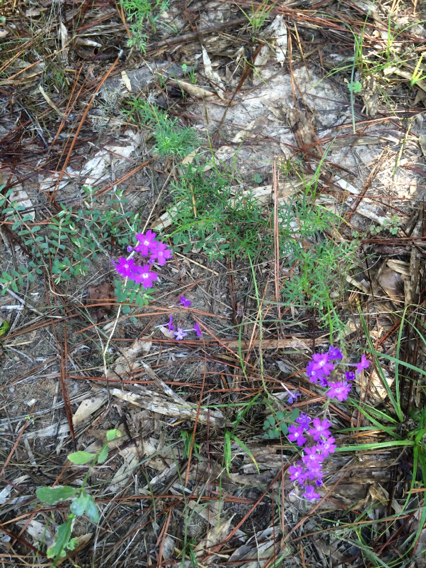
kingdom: Plantae
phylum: Tracheophyta
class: Magnoliopsida
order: Lamiales
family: Verbenaceae
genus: Verbena
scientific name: Verbena bipinnatifida
